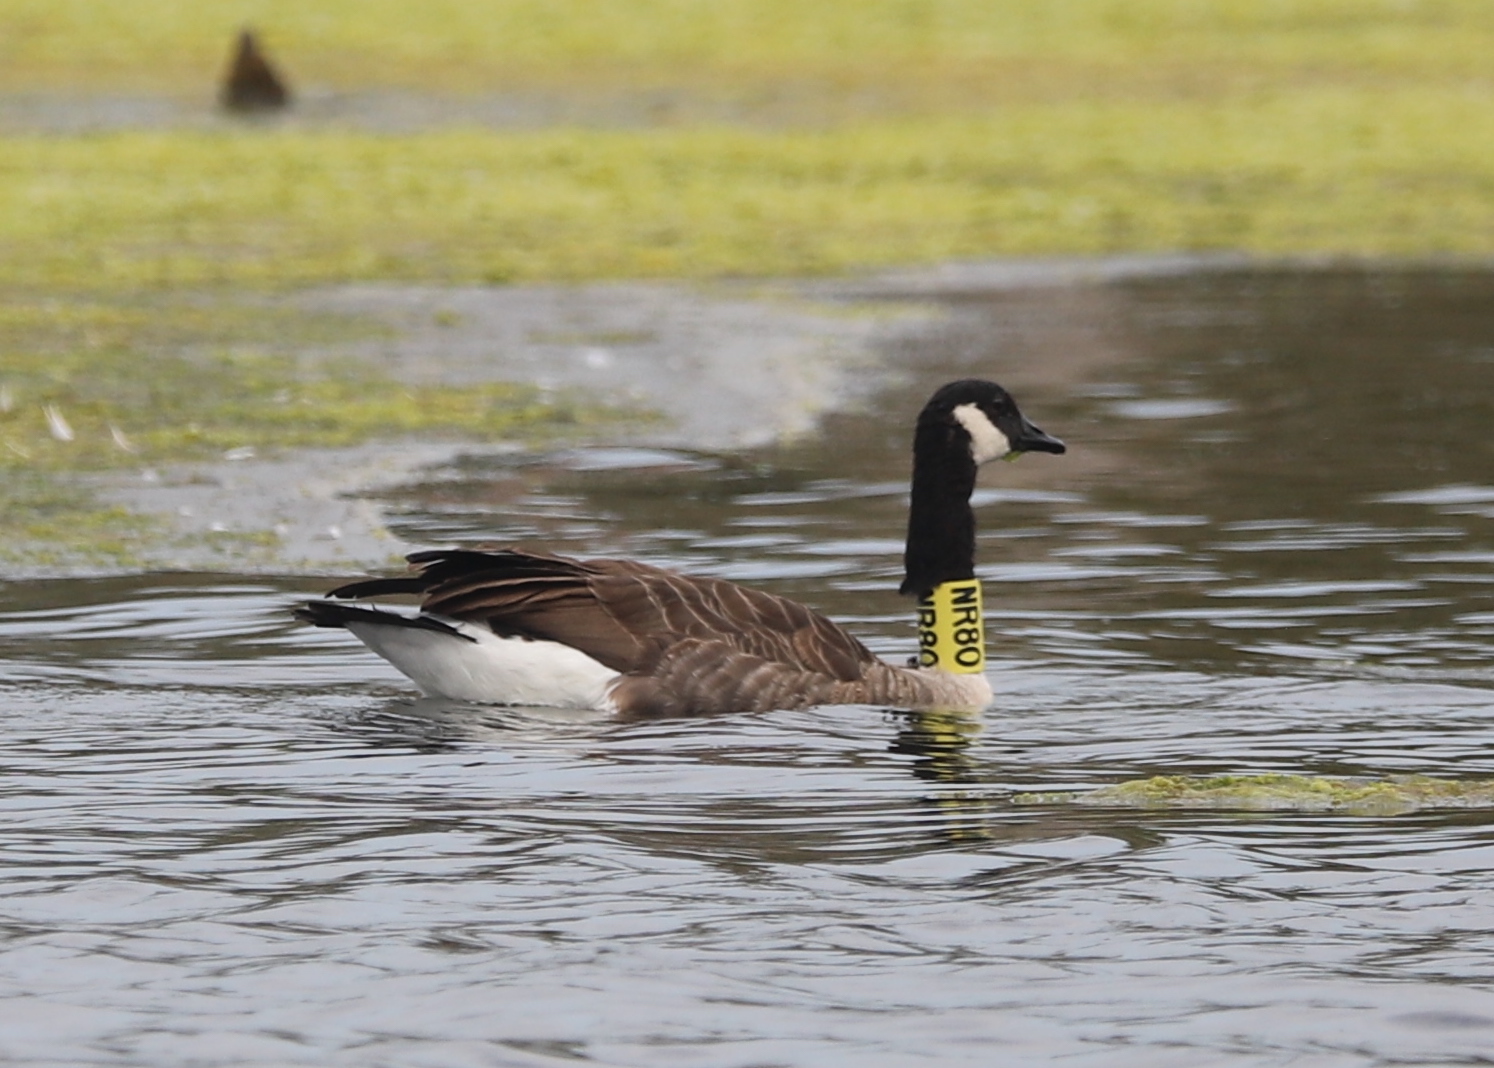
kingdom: Animalia
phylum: Chordata
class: Aves
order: Anseriformes
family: Anatidae
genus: Branta
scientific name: Branta canadensis
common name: Canada goose
